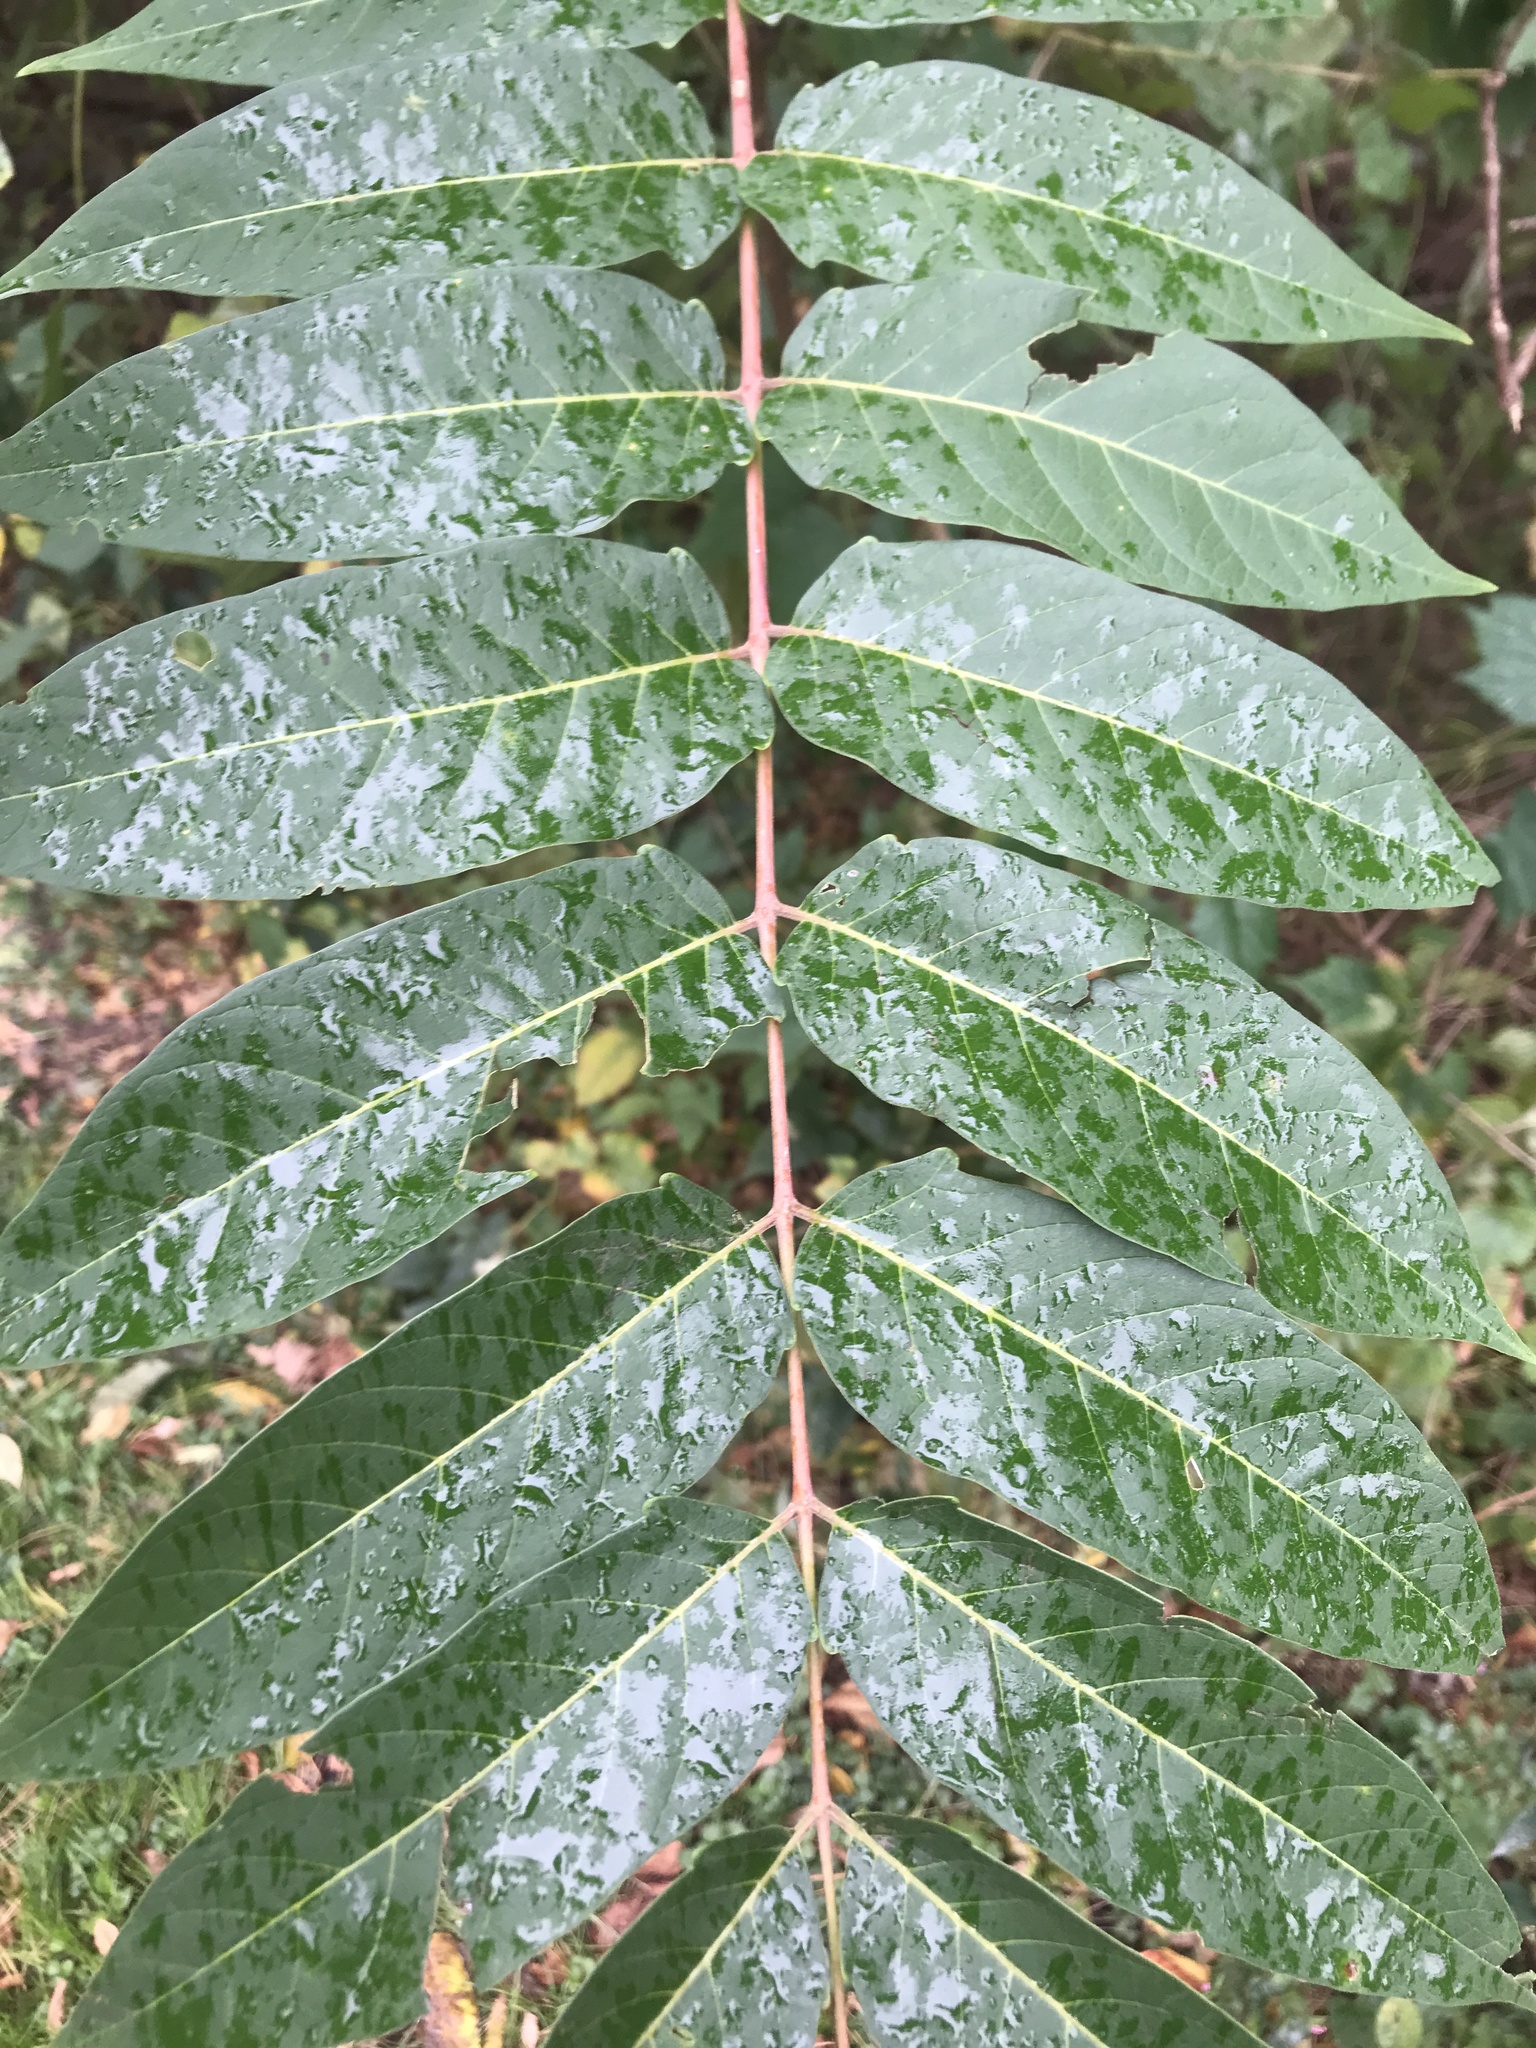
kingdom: Plantae
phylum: Tracheophyta
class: Magnoliopsida
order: Sapindales
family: Simaroubaceae
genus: Ailanthus
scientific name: Ailanthus altissima
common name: Tree-of-heaven
